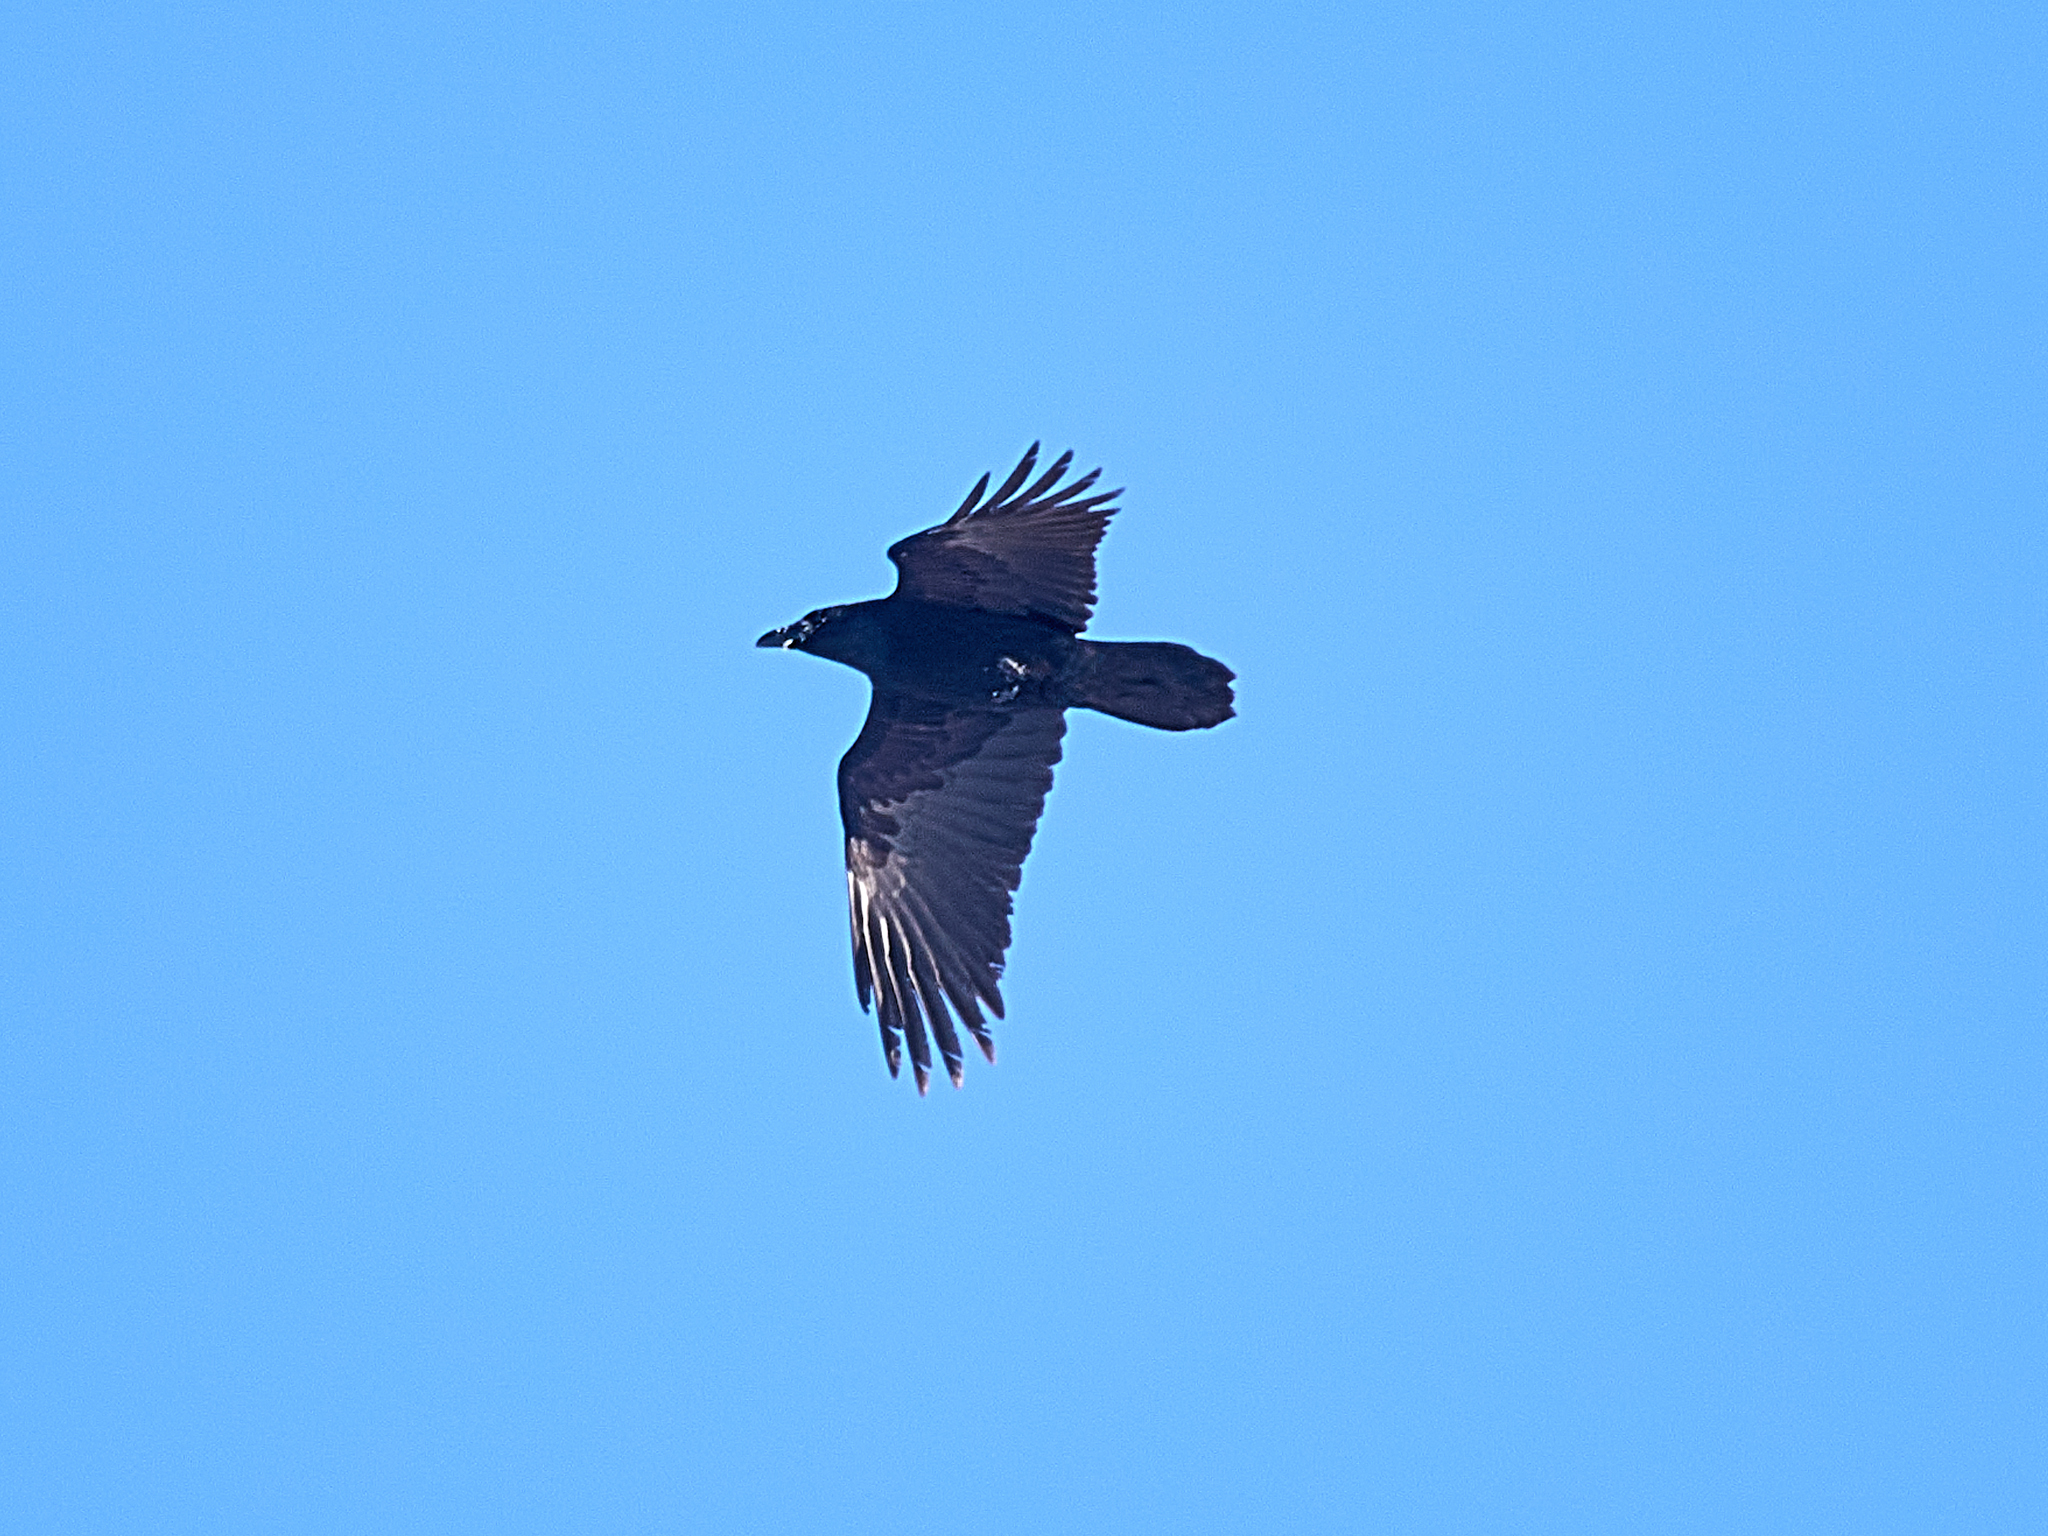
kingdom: Animalia
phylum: Chordata
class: Aves
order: Passeriformes
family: Corvidae
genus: Corvus
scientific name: Corvus corax
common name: Common raven
